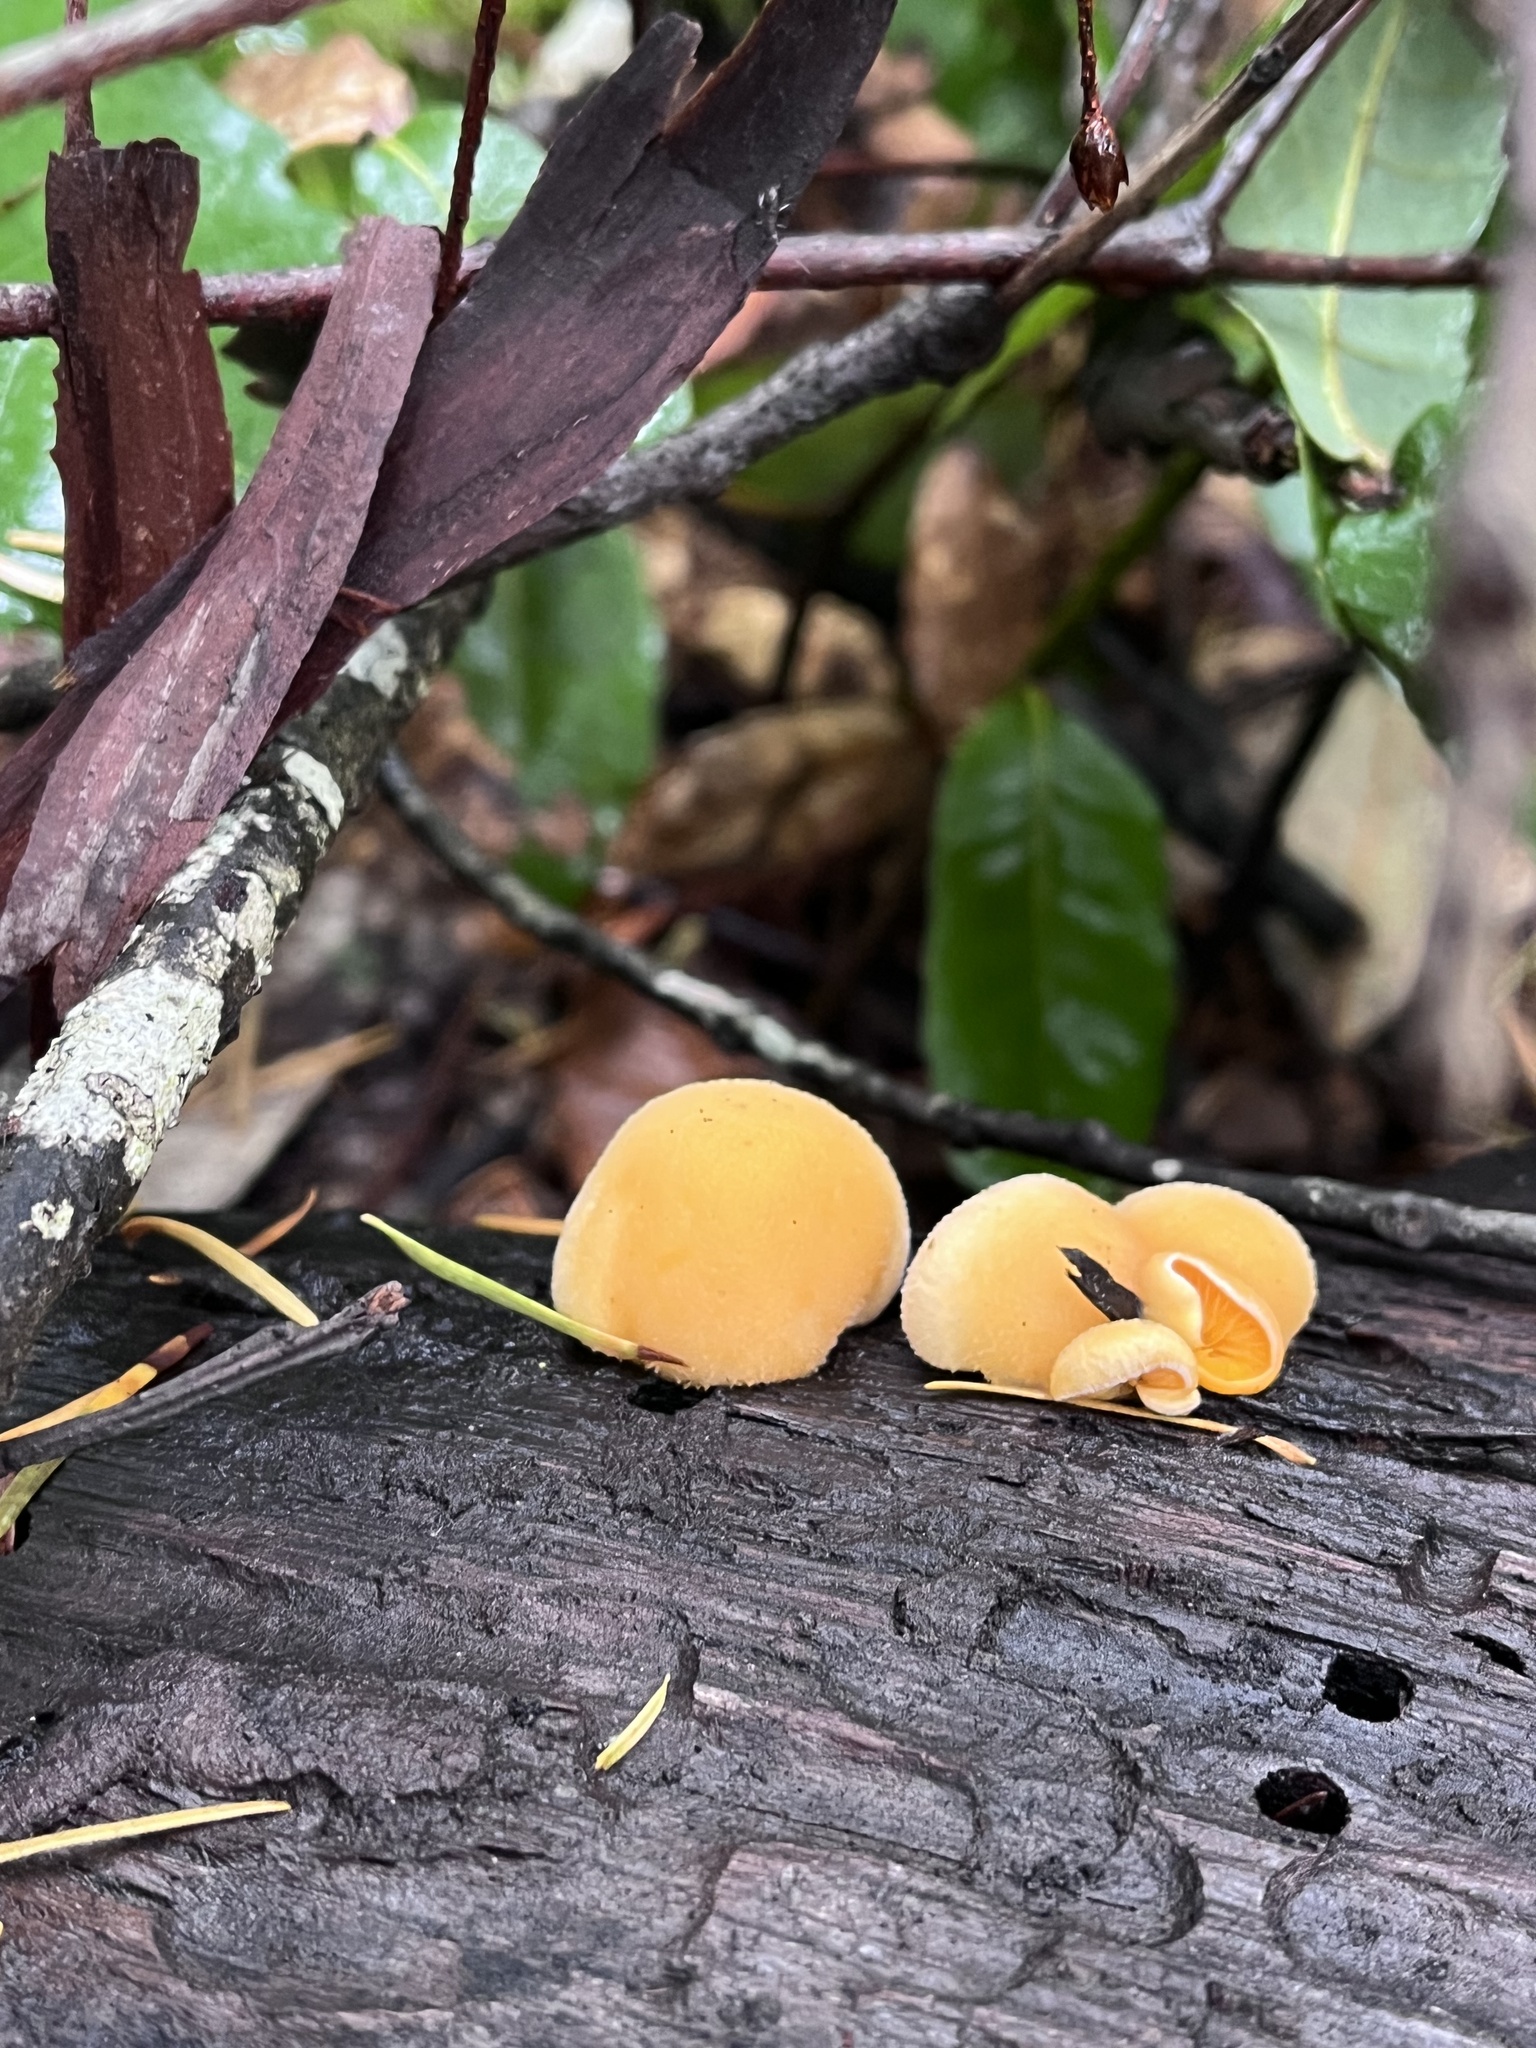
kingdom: Fungi
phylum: Basidiomycota
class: Agaricomycetes
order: Agaricales
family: Phyllotopsidaceae
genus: Phyllotopsis
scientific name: Phyllotopsis nidulans
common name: Orange mock oyster
